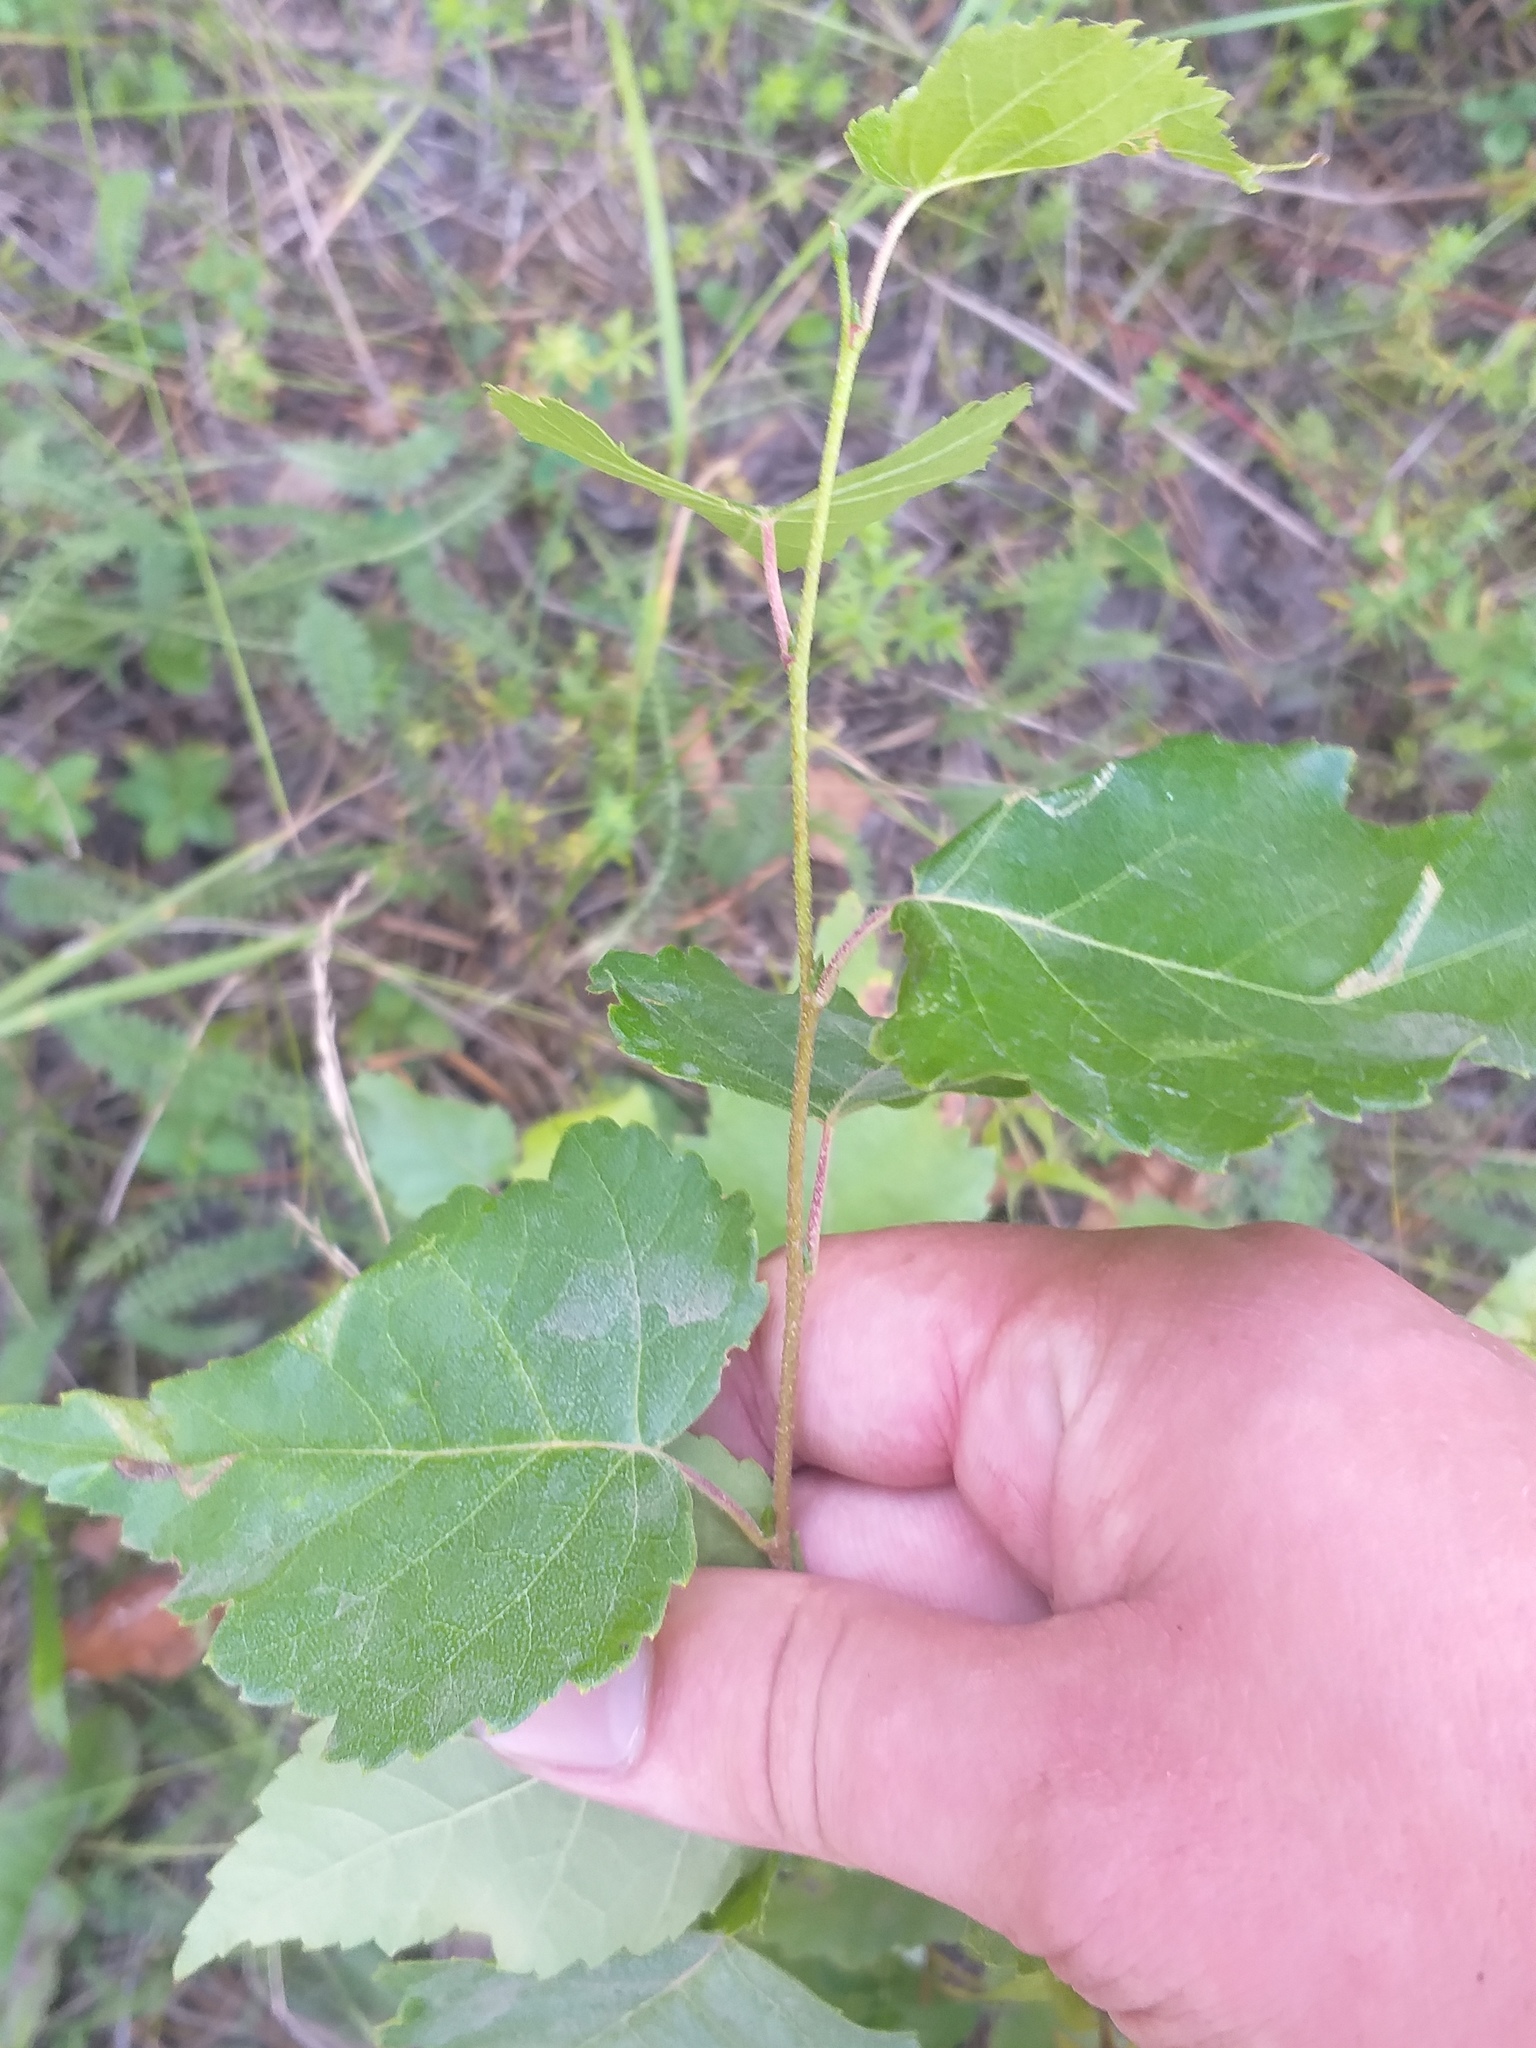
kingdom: Plantae
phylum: Tracheophyta
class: Magnoliopsida
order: Fagales
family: Betulaceae
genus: Betula
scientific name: Betula pendula
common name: Silver birch
